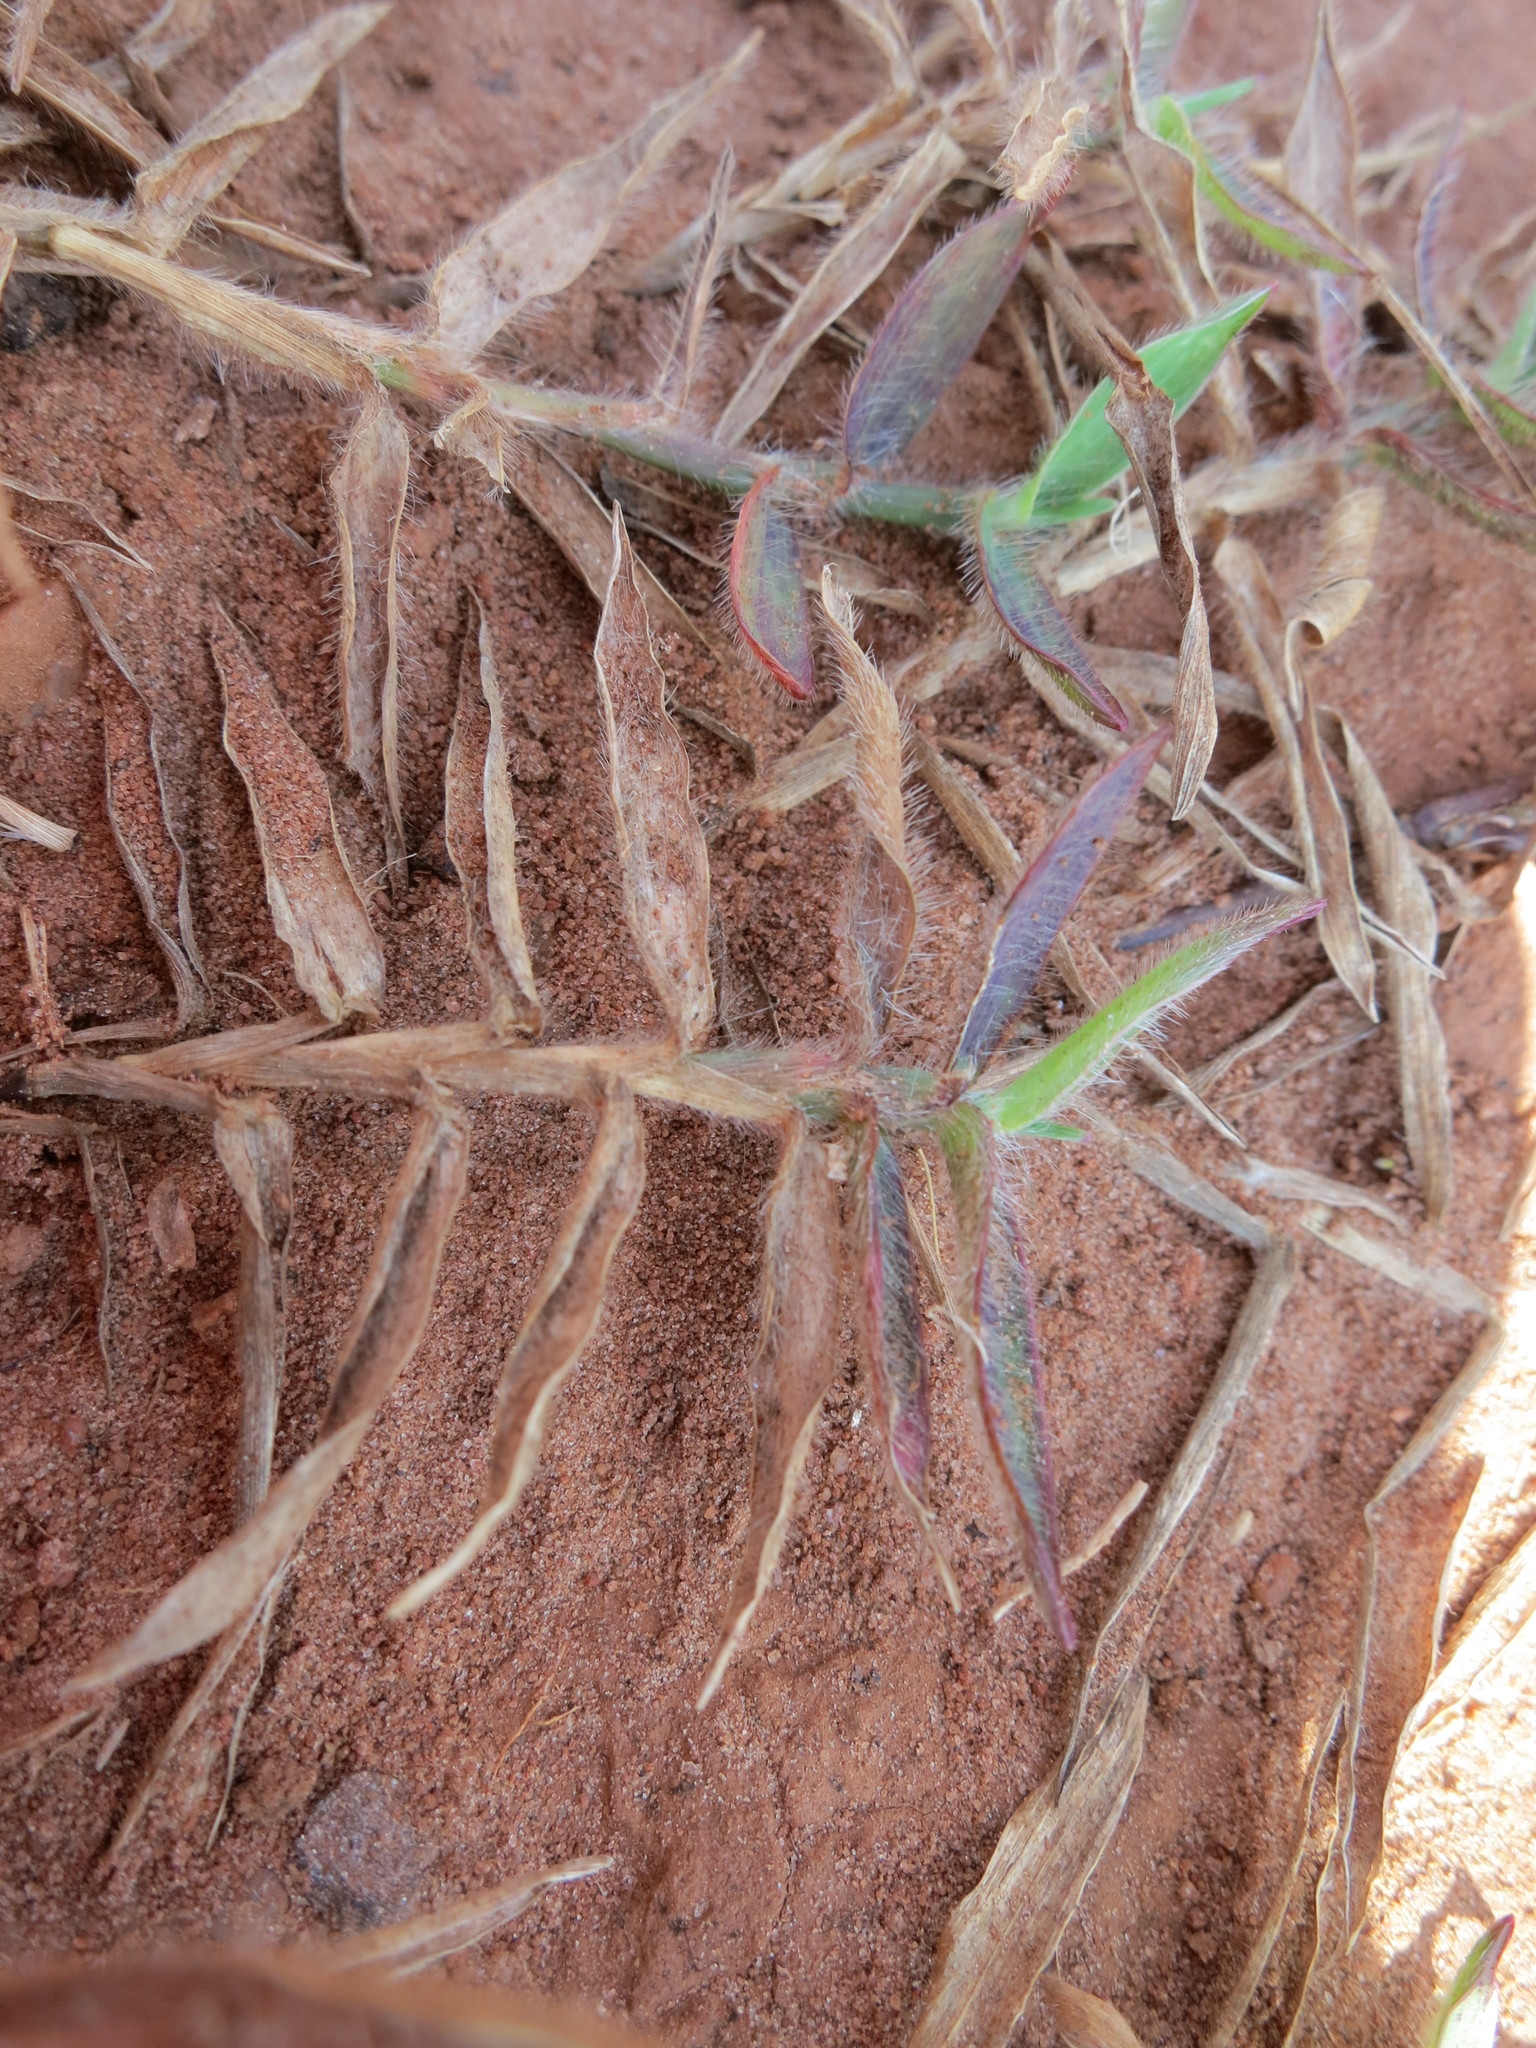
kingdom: Plantae
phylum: Tracheophyta
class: Liliopsida
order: Poales
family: Poaceae
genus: Digitaria
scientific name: Digitaria longiflora
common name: Wire crabgrass
